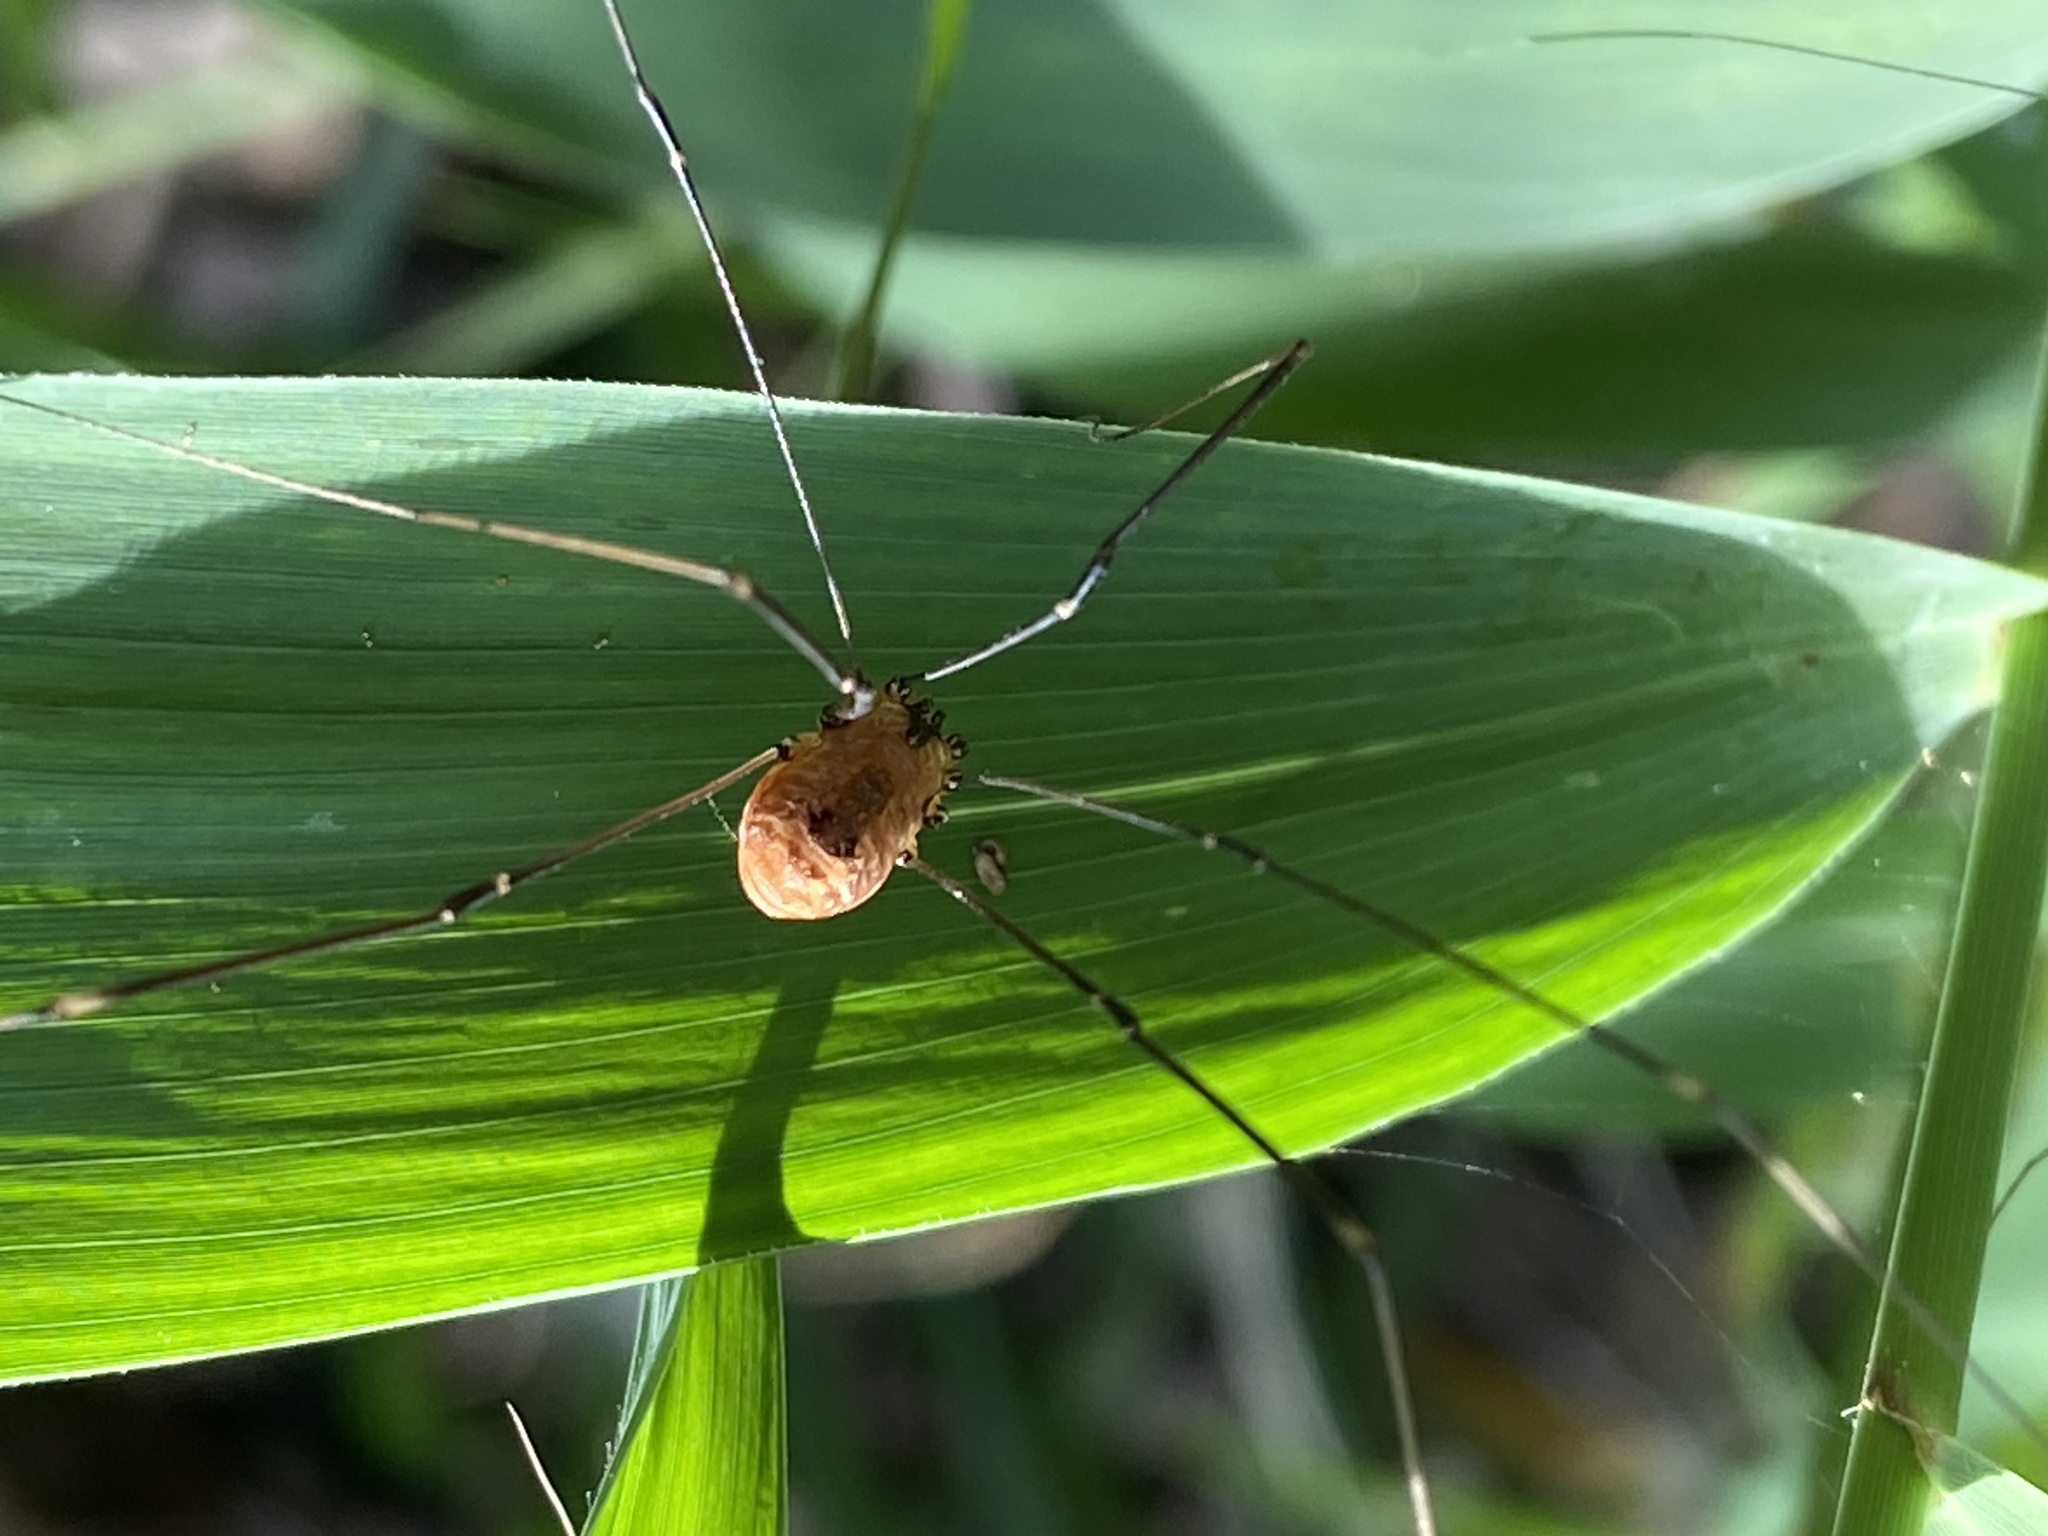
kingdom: Animalia
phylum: Arthropoda
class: Arachnida
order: Opiliones
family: Sclerosomatidae
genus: Leiobunum
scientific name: Leiobunum rotundum
